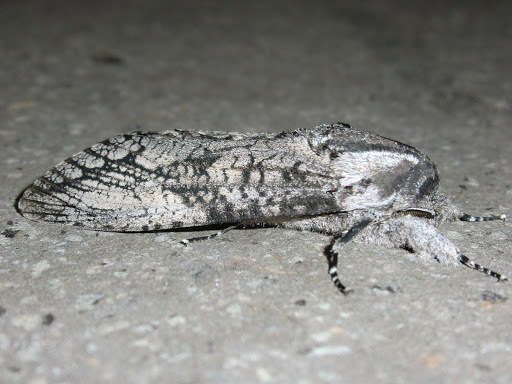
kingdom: Animalia
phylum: Arthropoda
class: Insecta
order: Lepidoptera
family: Cossidae
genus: Endoxyla
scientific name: Endoxyla lichenea
